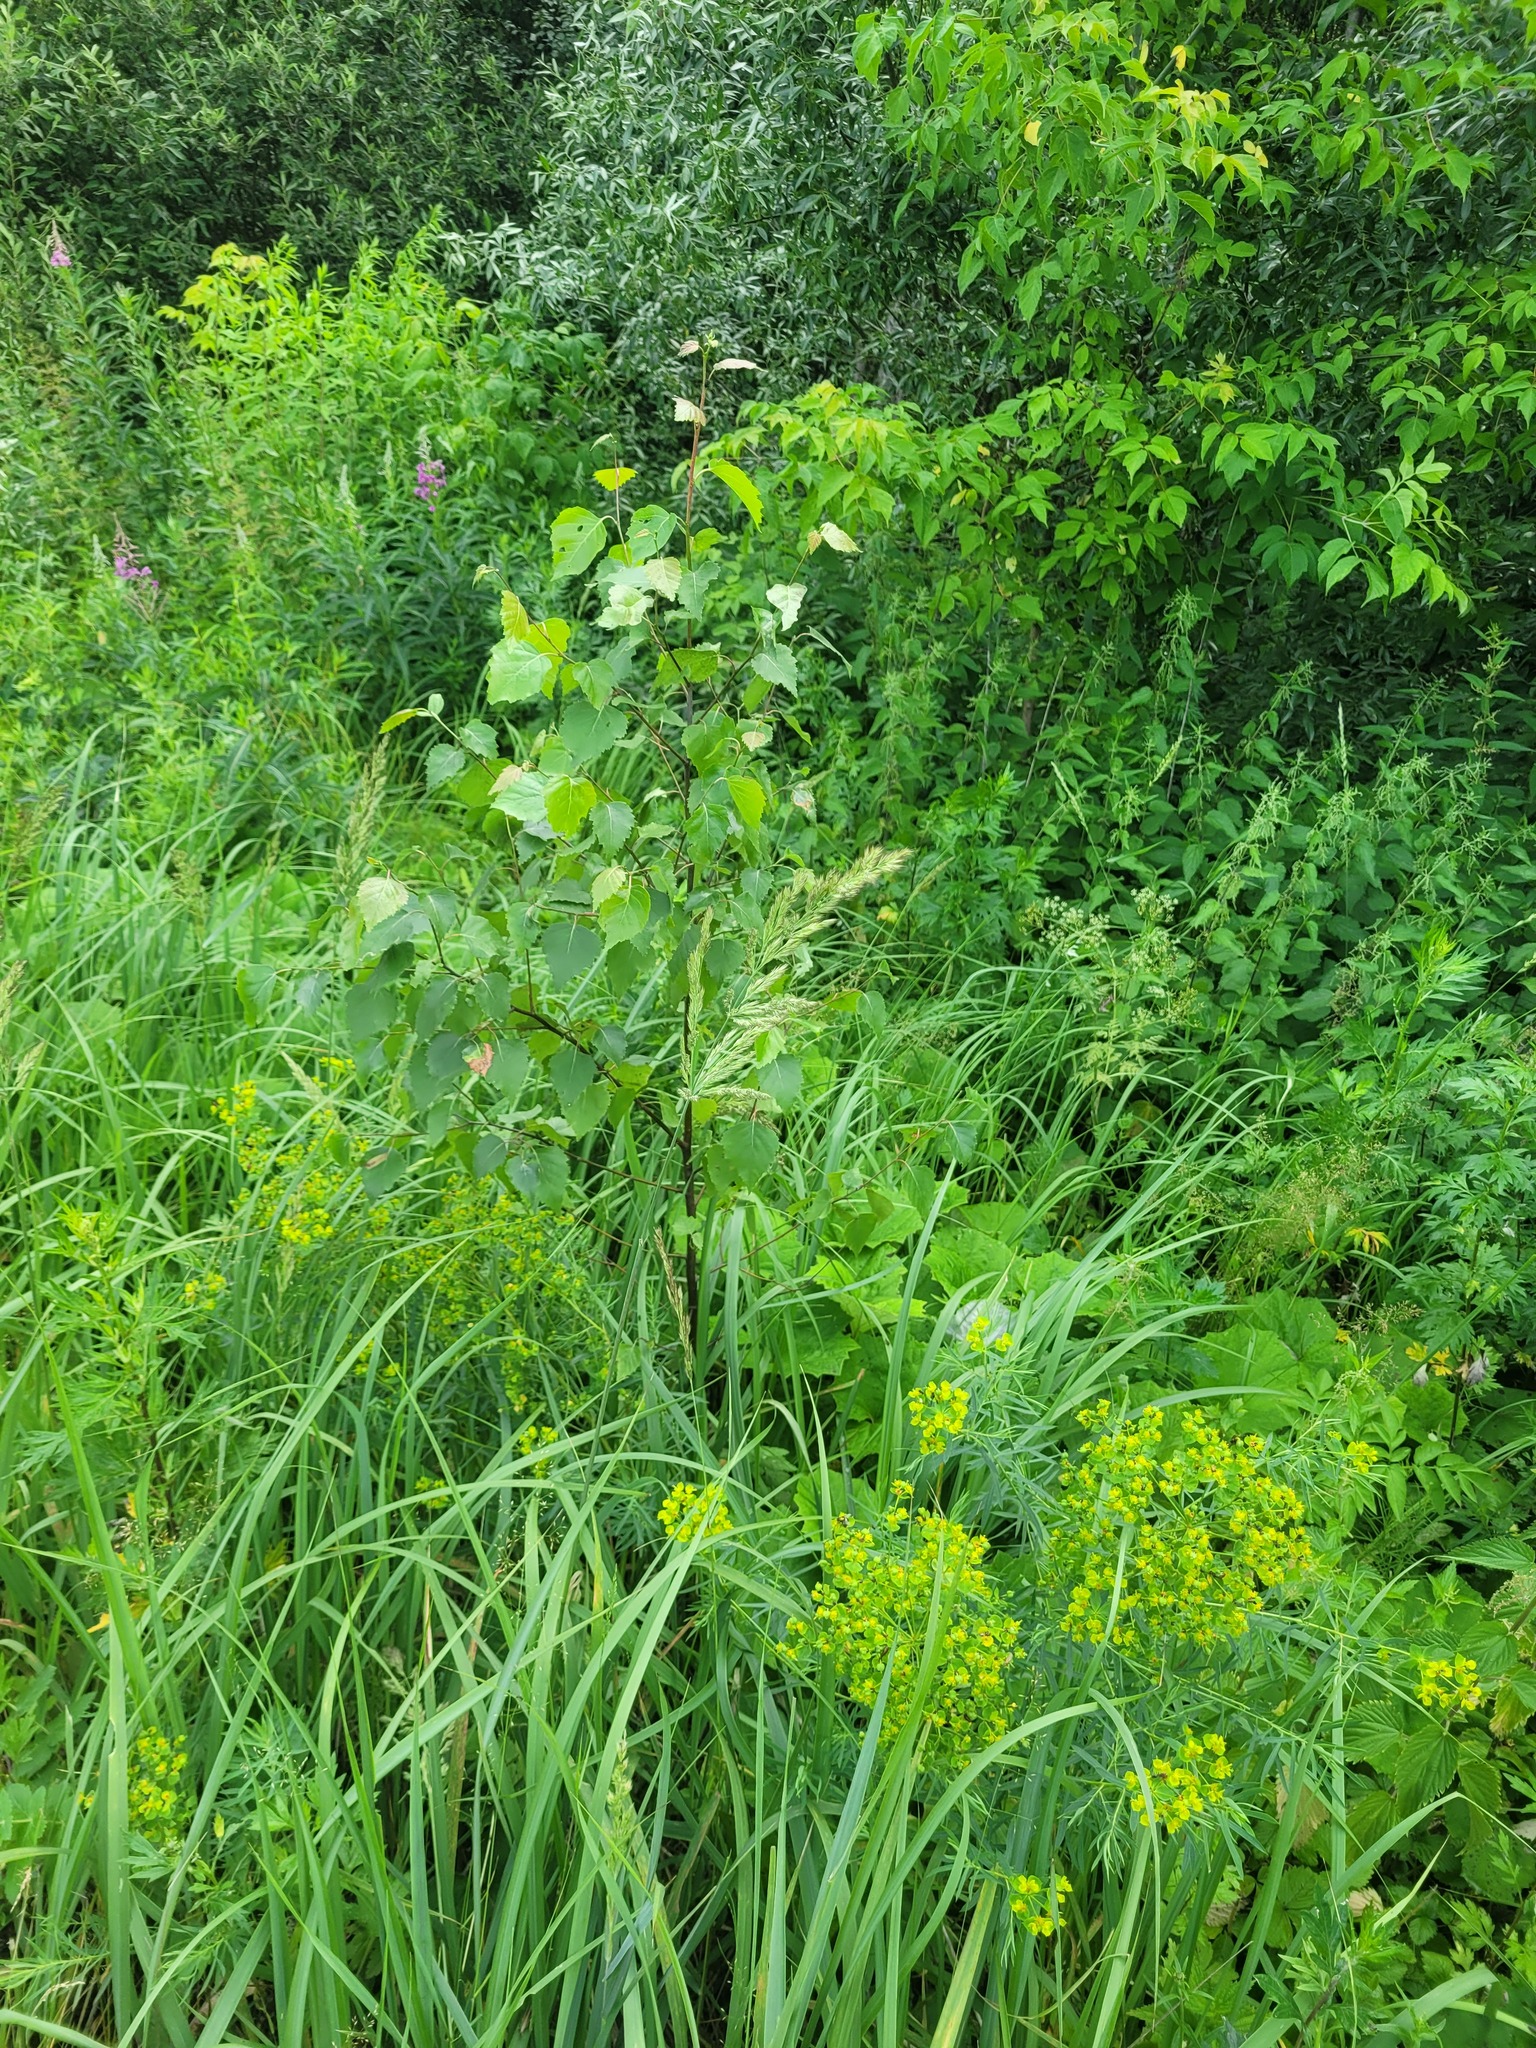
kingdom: Plantae
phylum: Tracheophyta
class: Liliopsida
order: Poales
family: Poaceae
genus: Calamagrostis
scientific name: Calamagrostis epigejos
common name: Wood small-reed
